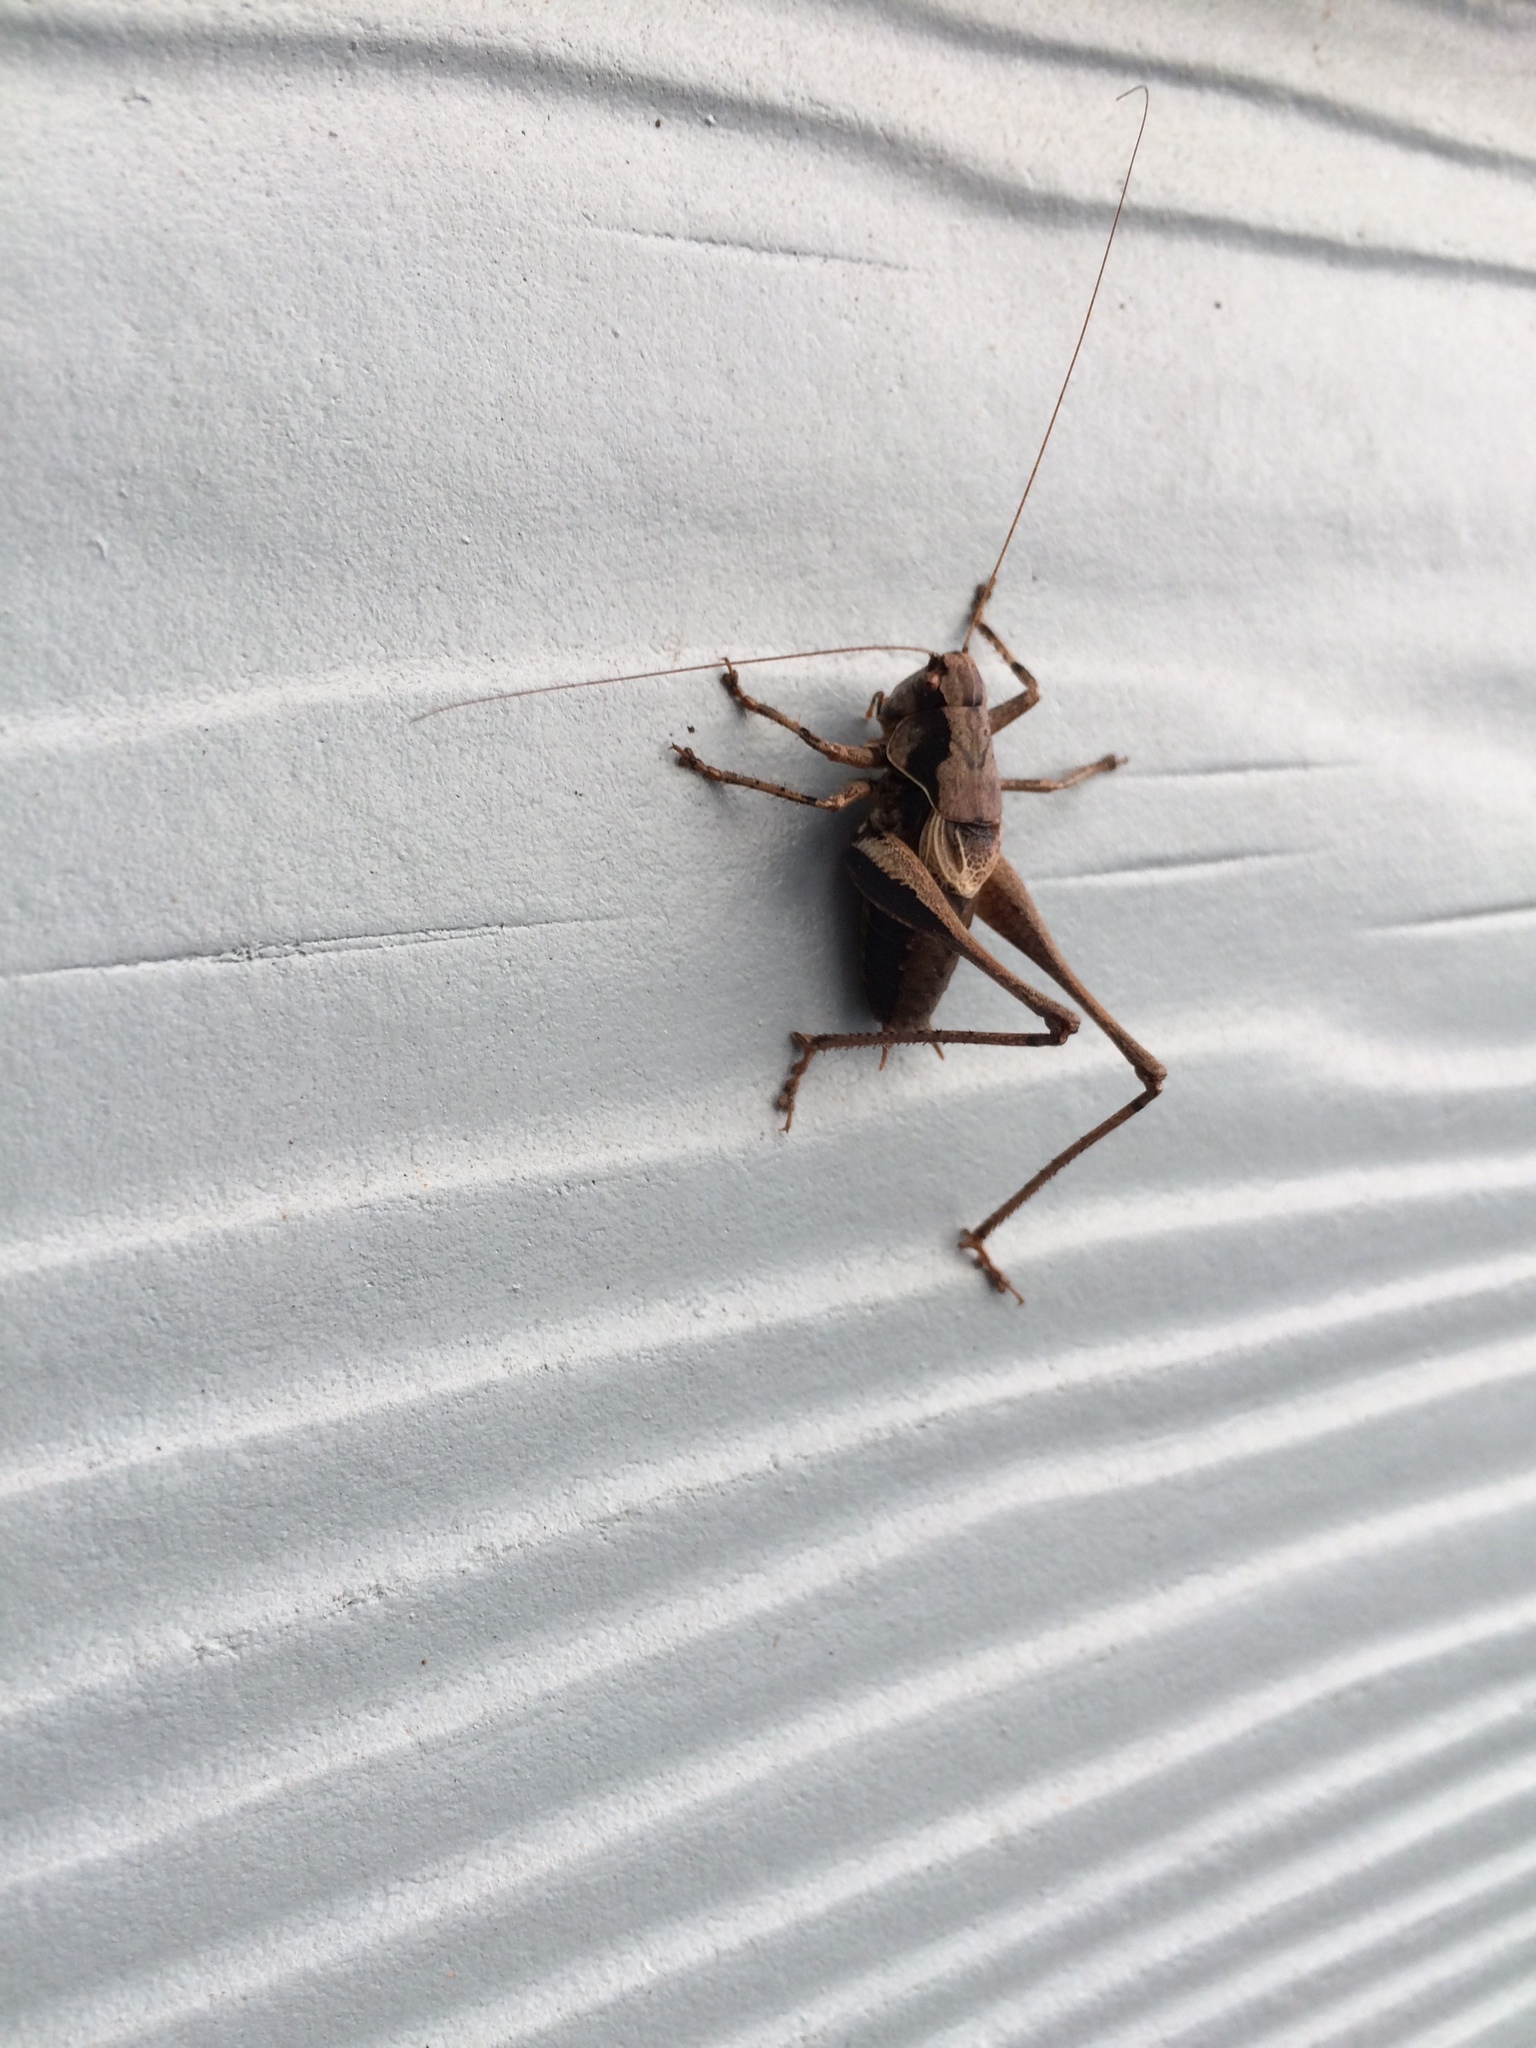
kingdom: Animalia
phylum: Arthropoda
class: Insecta
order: Orthoptera
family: Tettigoniidae
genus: Pholidoptera
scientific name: Pholidoptera griseoaptera
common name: Dark bush-cricket
